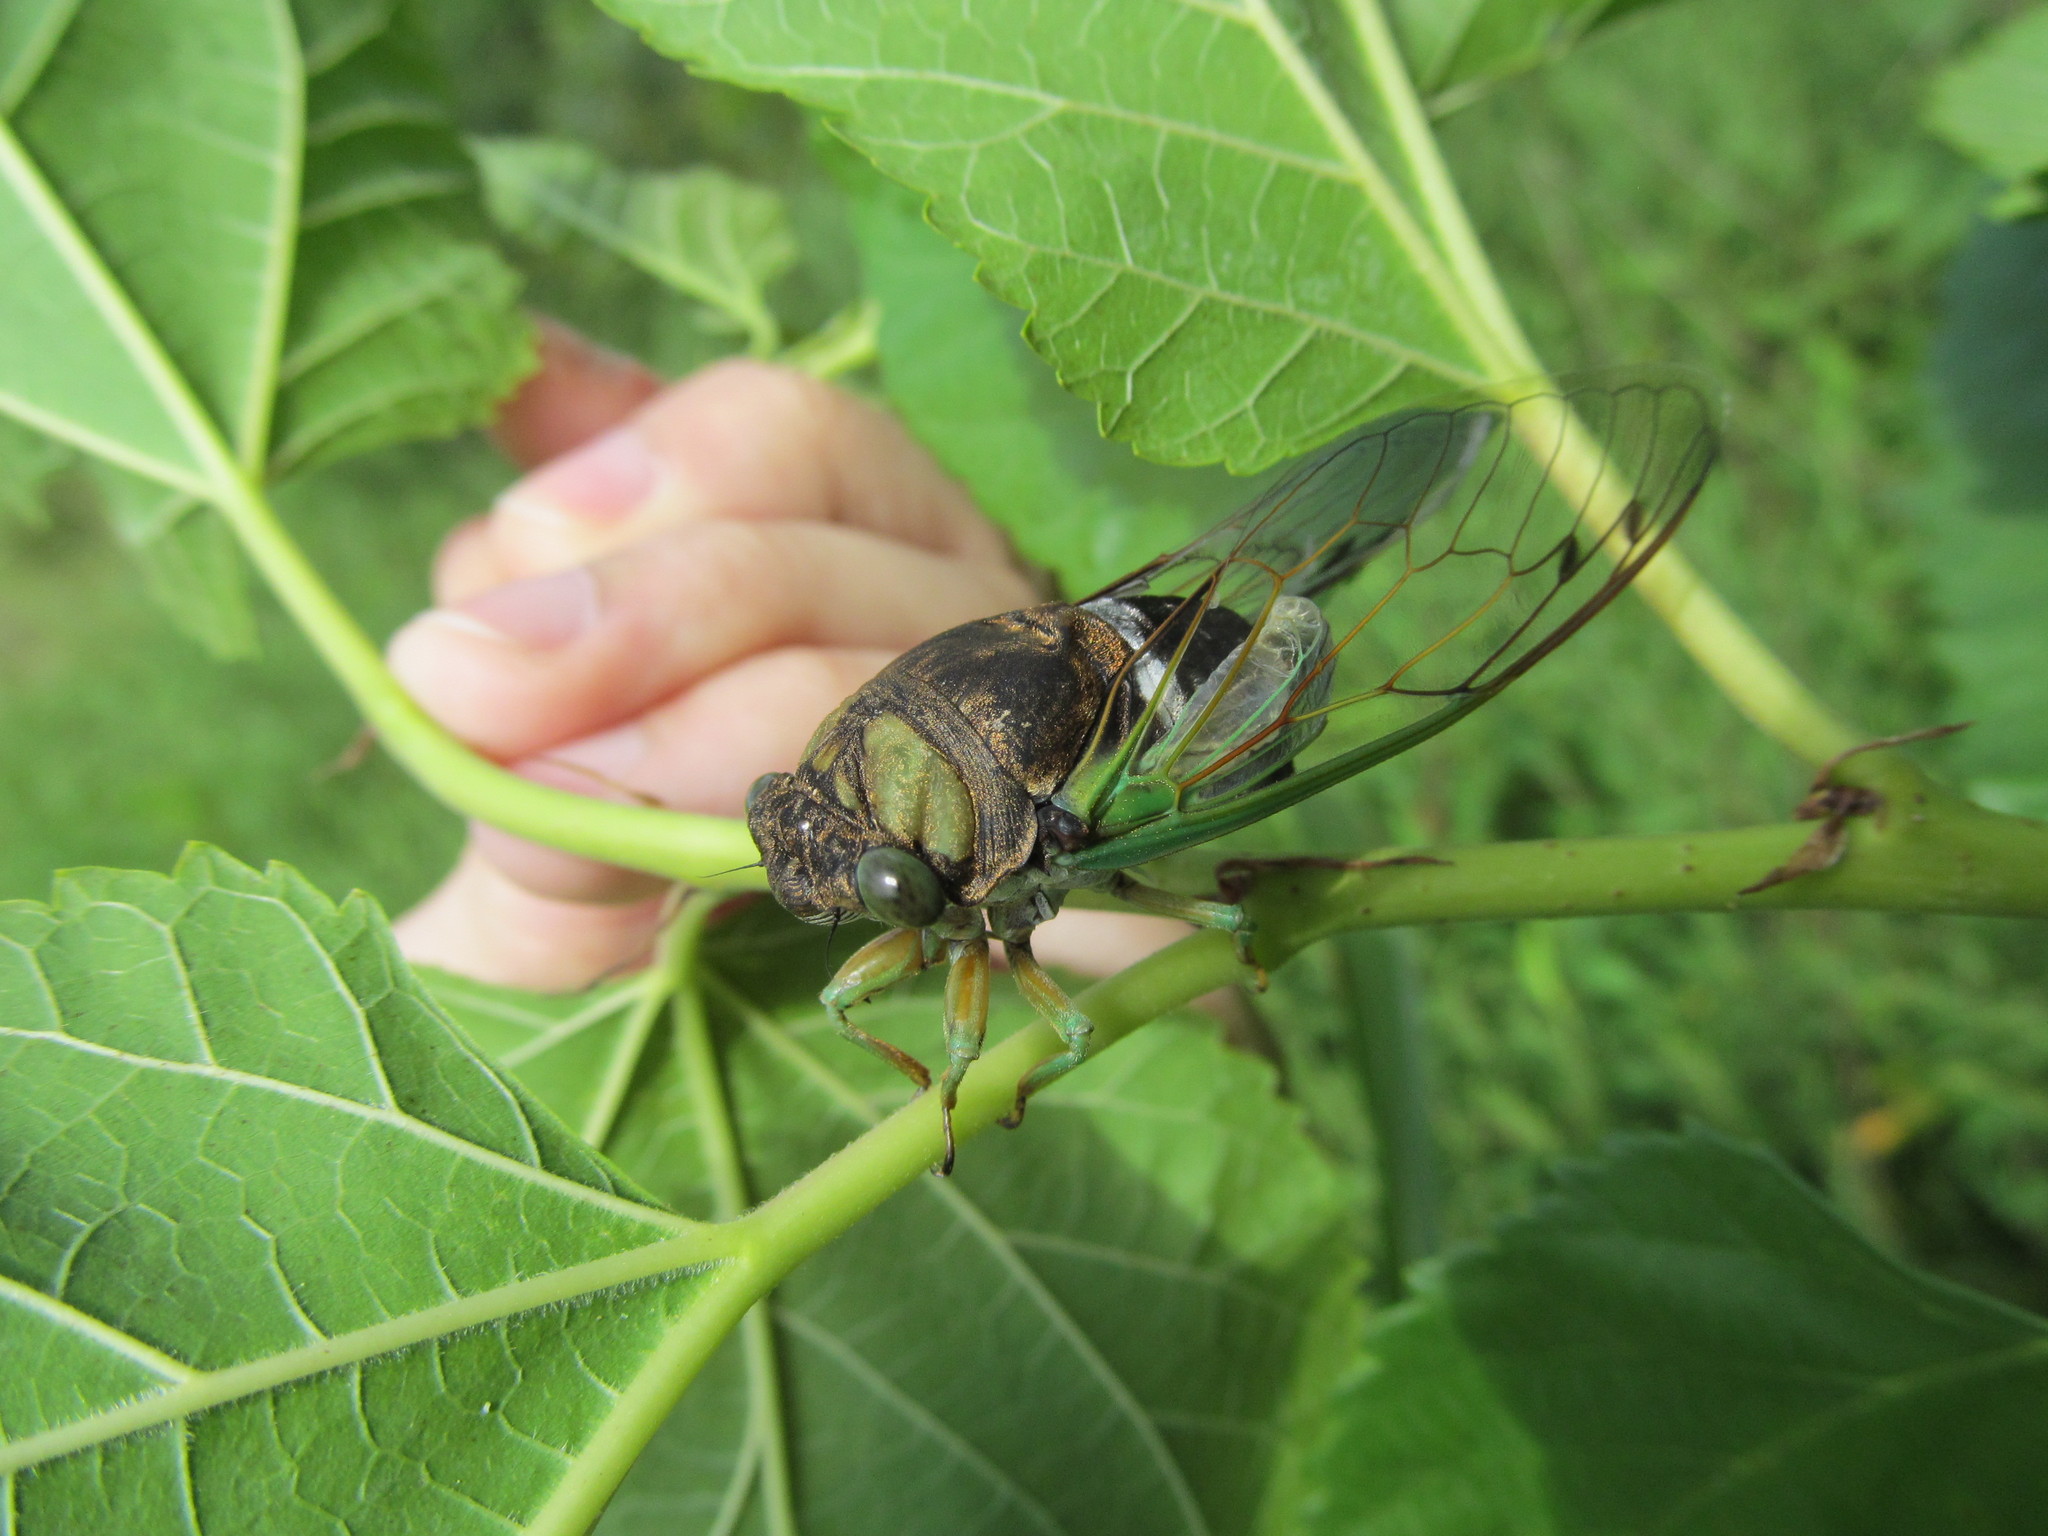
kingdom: Animalia
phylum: Arthropoda
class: Insecta
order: Hemiptera
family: Cicadidae
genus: Neotibicen
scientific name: Neotibicen tibicen
